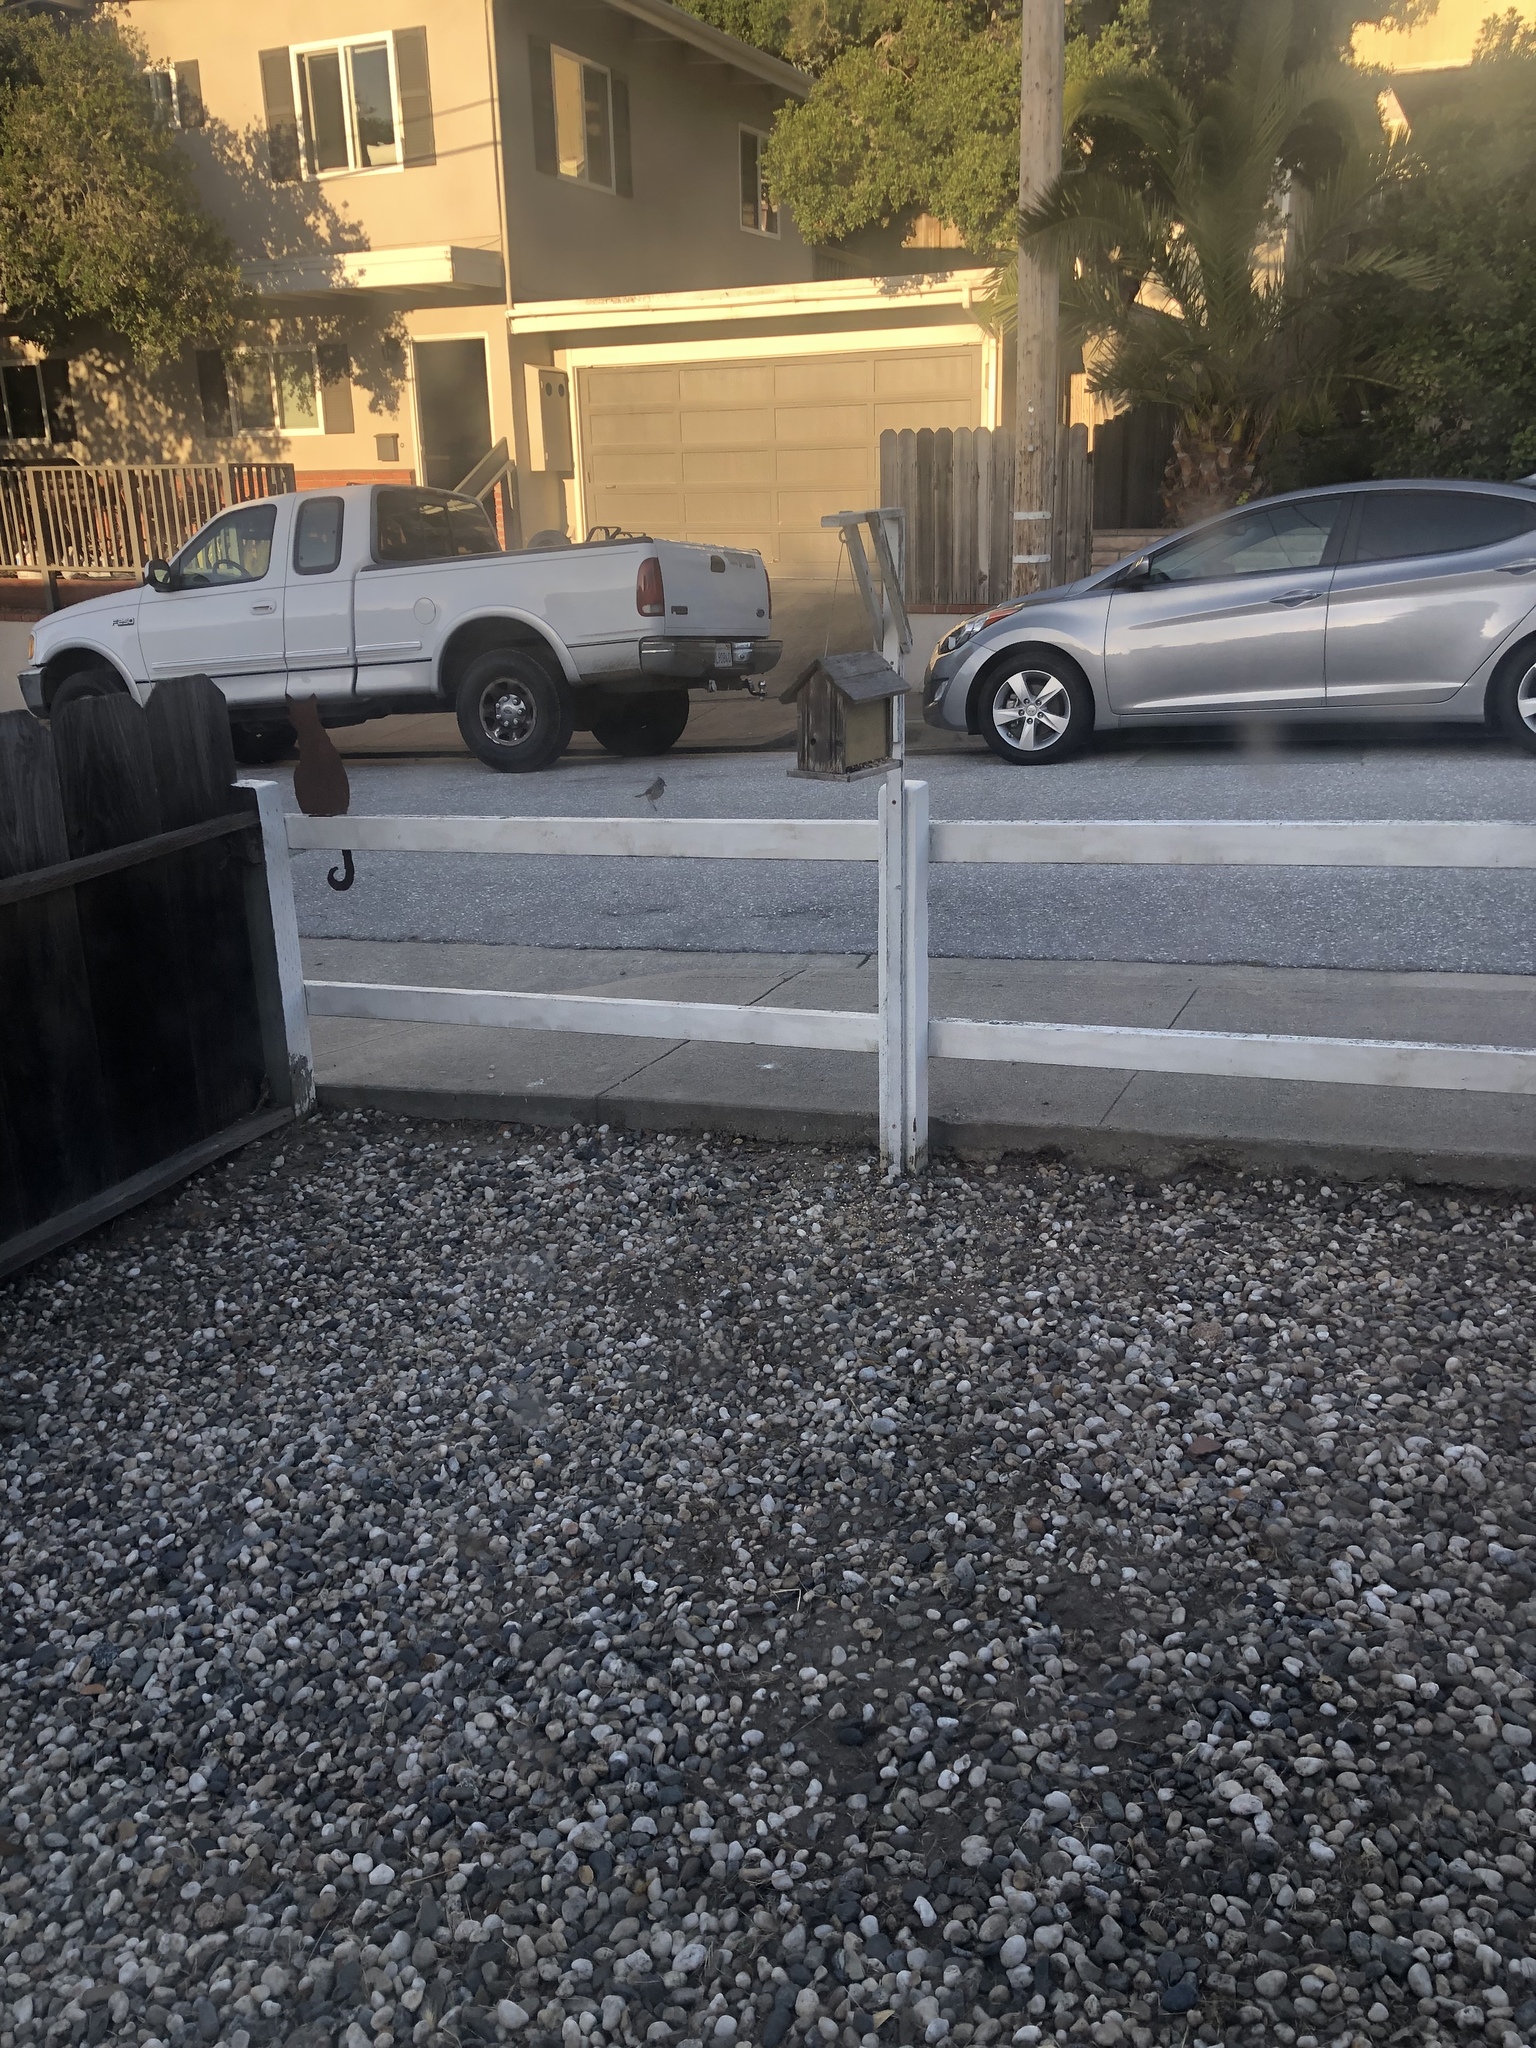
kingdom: Animalia
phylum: Chordata
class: Aves
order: Passeriformes
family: Paridae
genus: Baeolophus
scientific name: Baeolophus inornatus
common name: Oak titmouse
